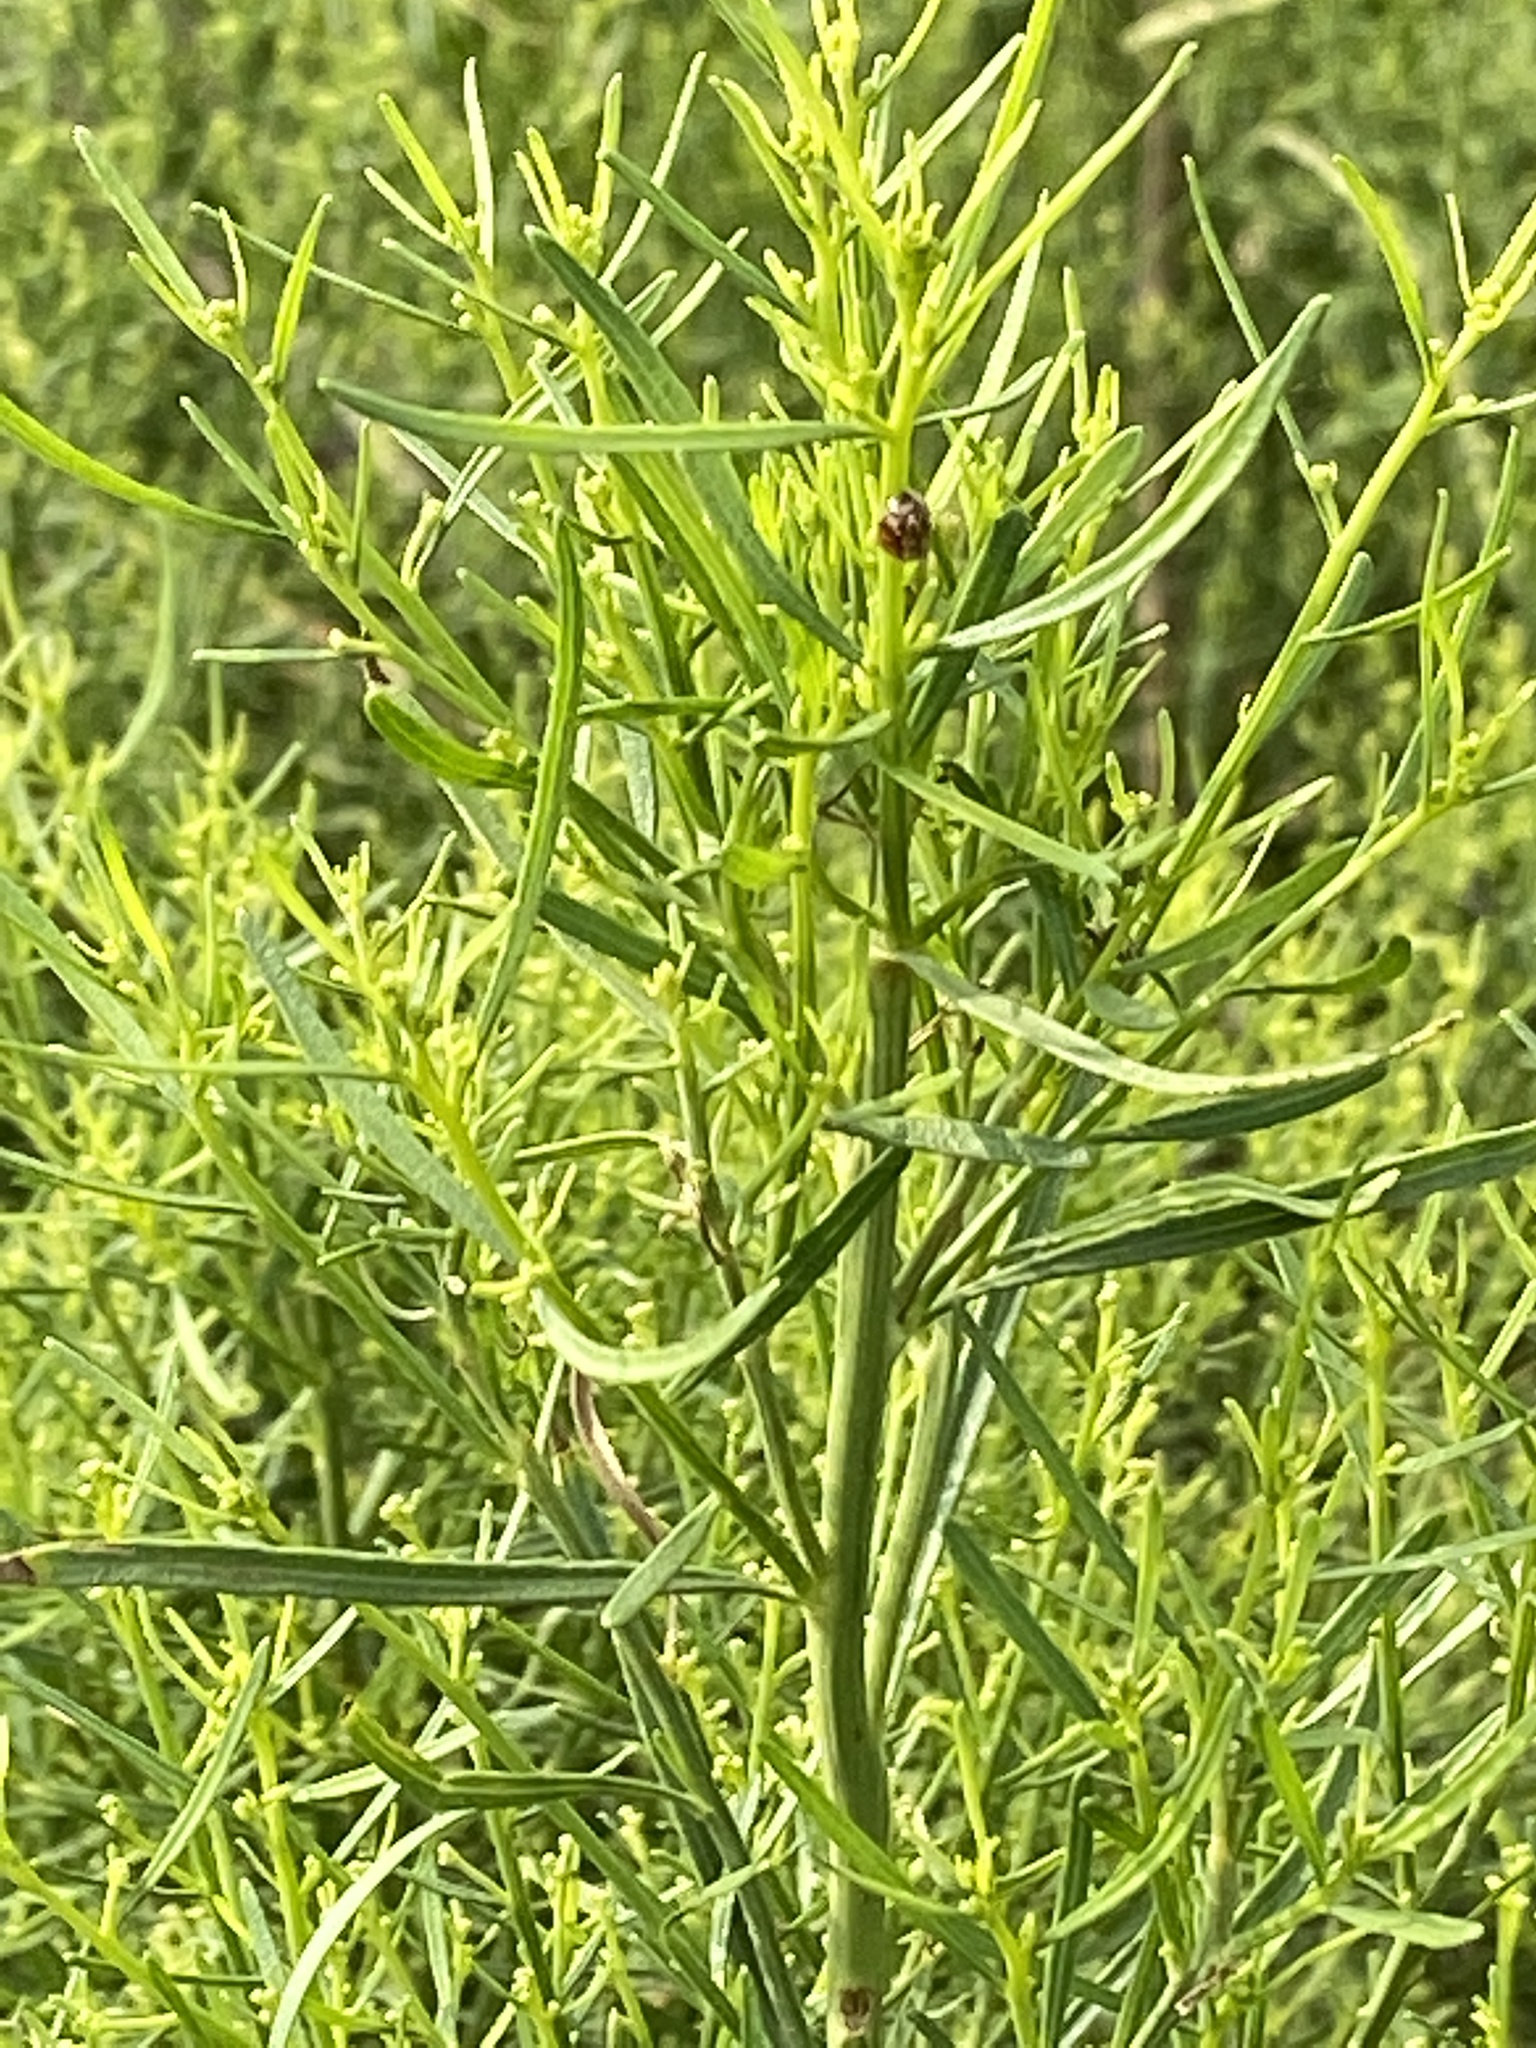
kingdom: Plantae
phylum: Tracheophyta
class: Magnoliopsida
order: Asterales
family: Asteraceae
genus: Baccharis
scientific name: Baccharis neglecta
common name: Roosevelt-weed
